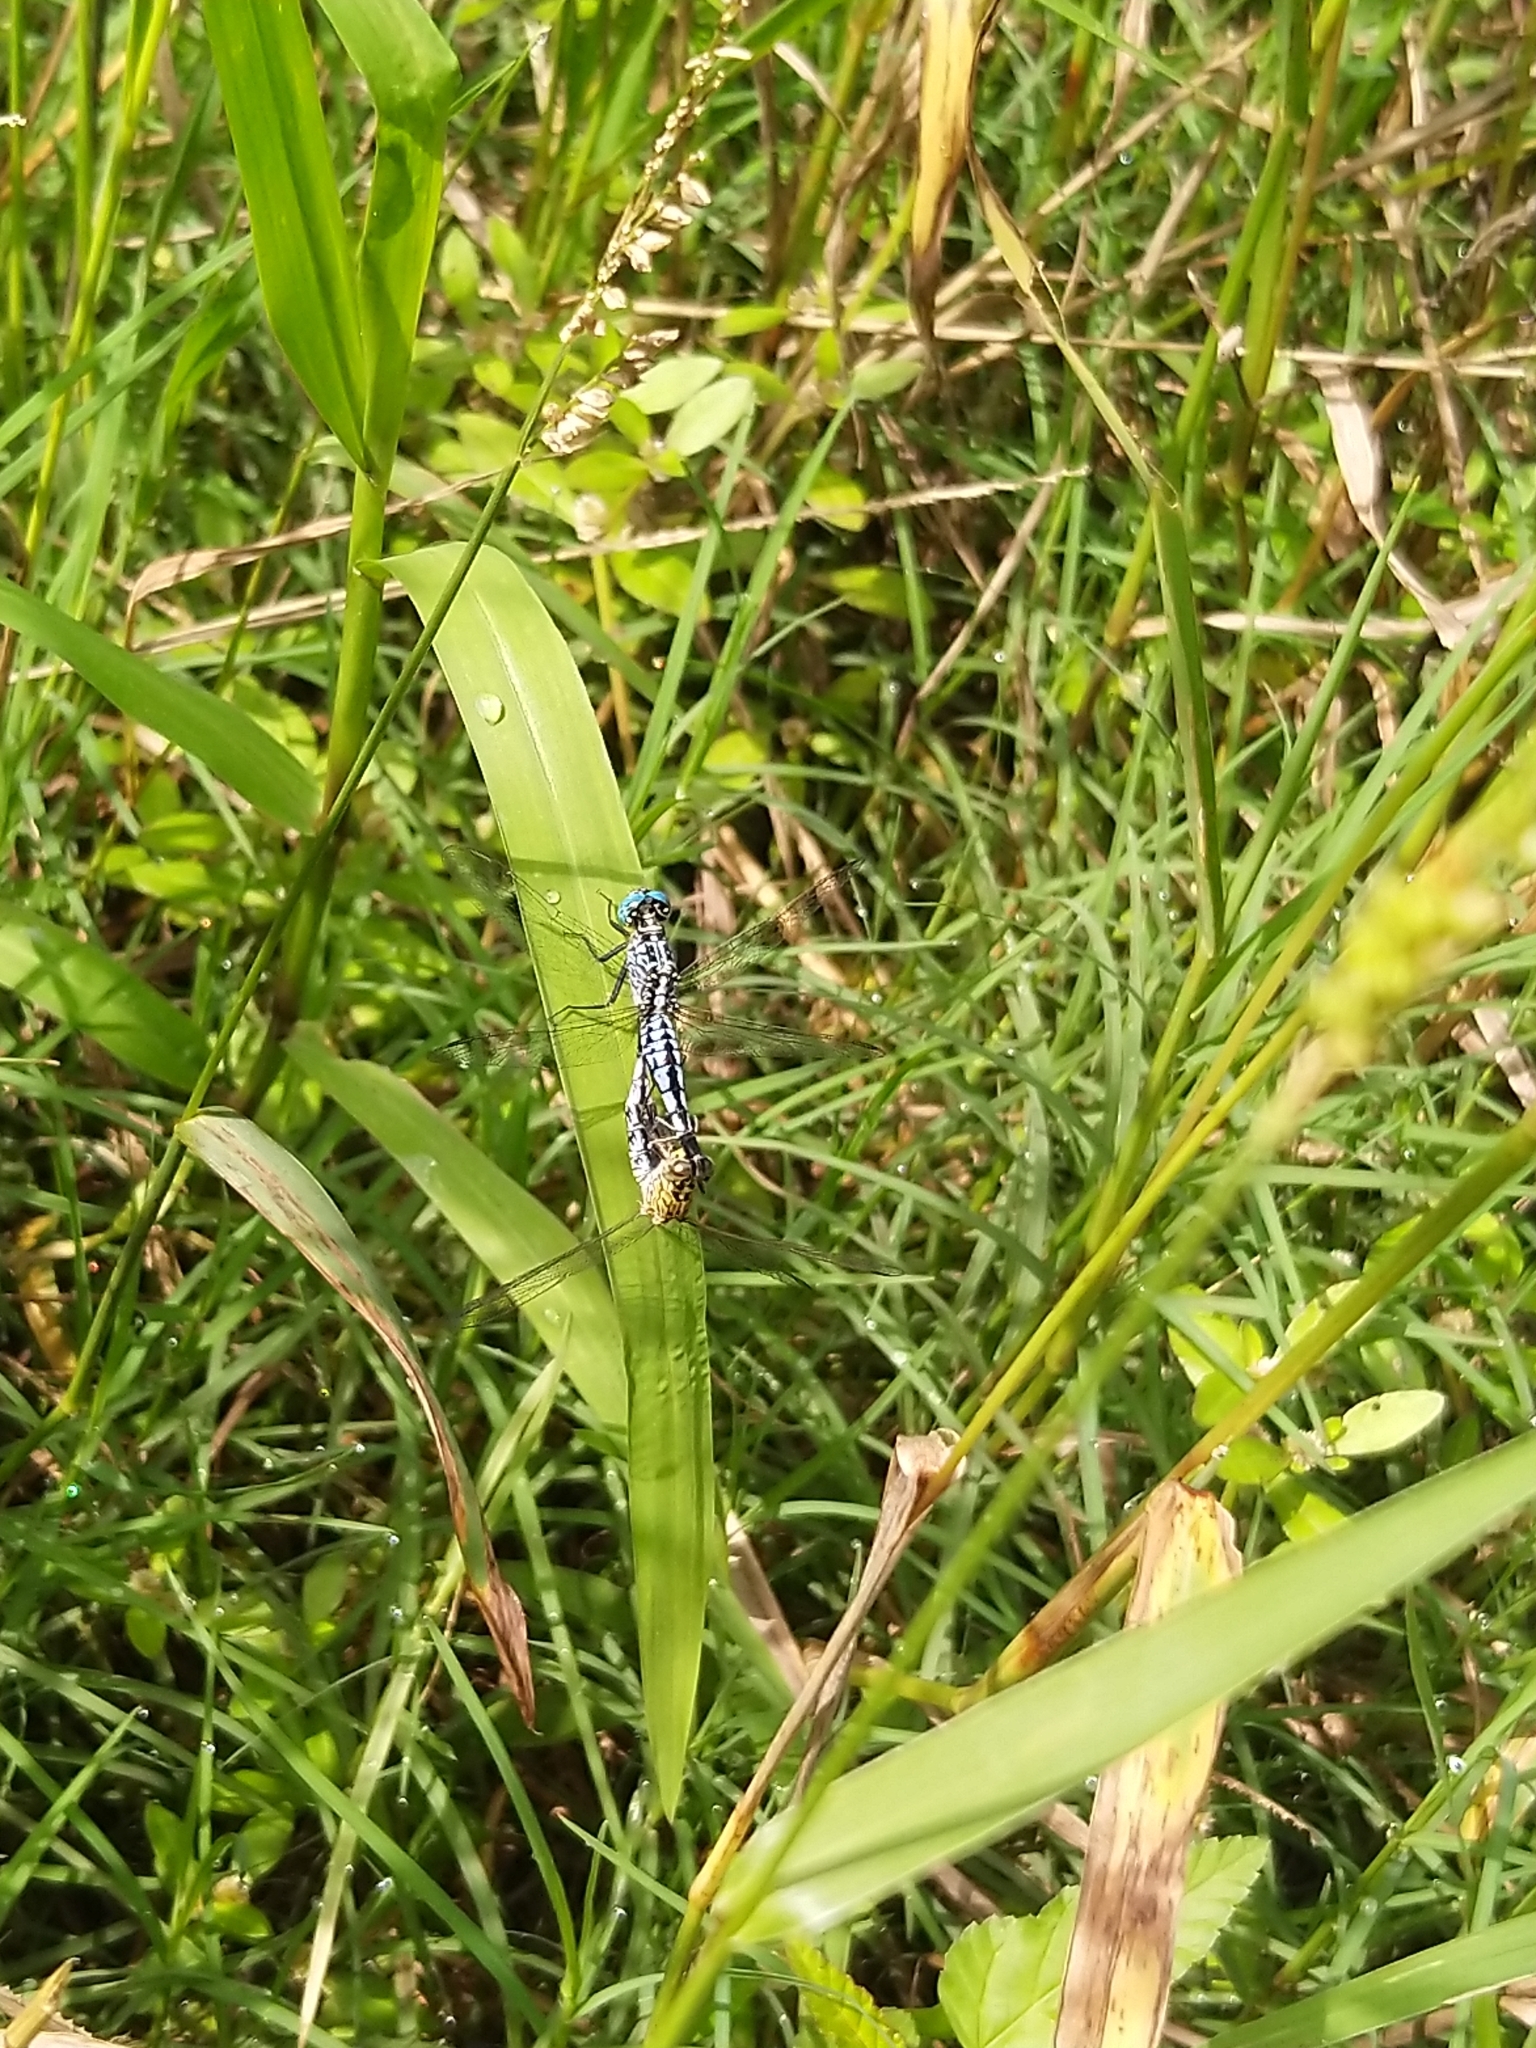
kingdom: Animalia
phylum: Arthropoda
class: Insecta
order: Odonata
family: Libellulidae
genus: Acisoma
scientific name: Acisoma panorpoides
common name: Asian pintail
